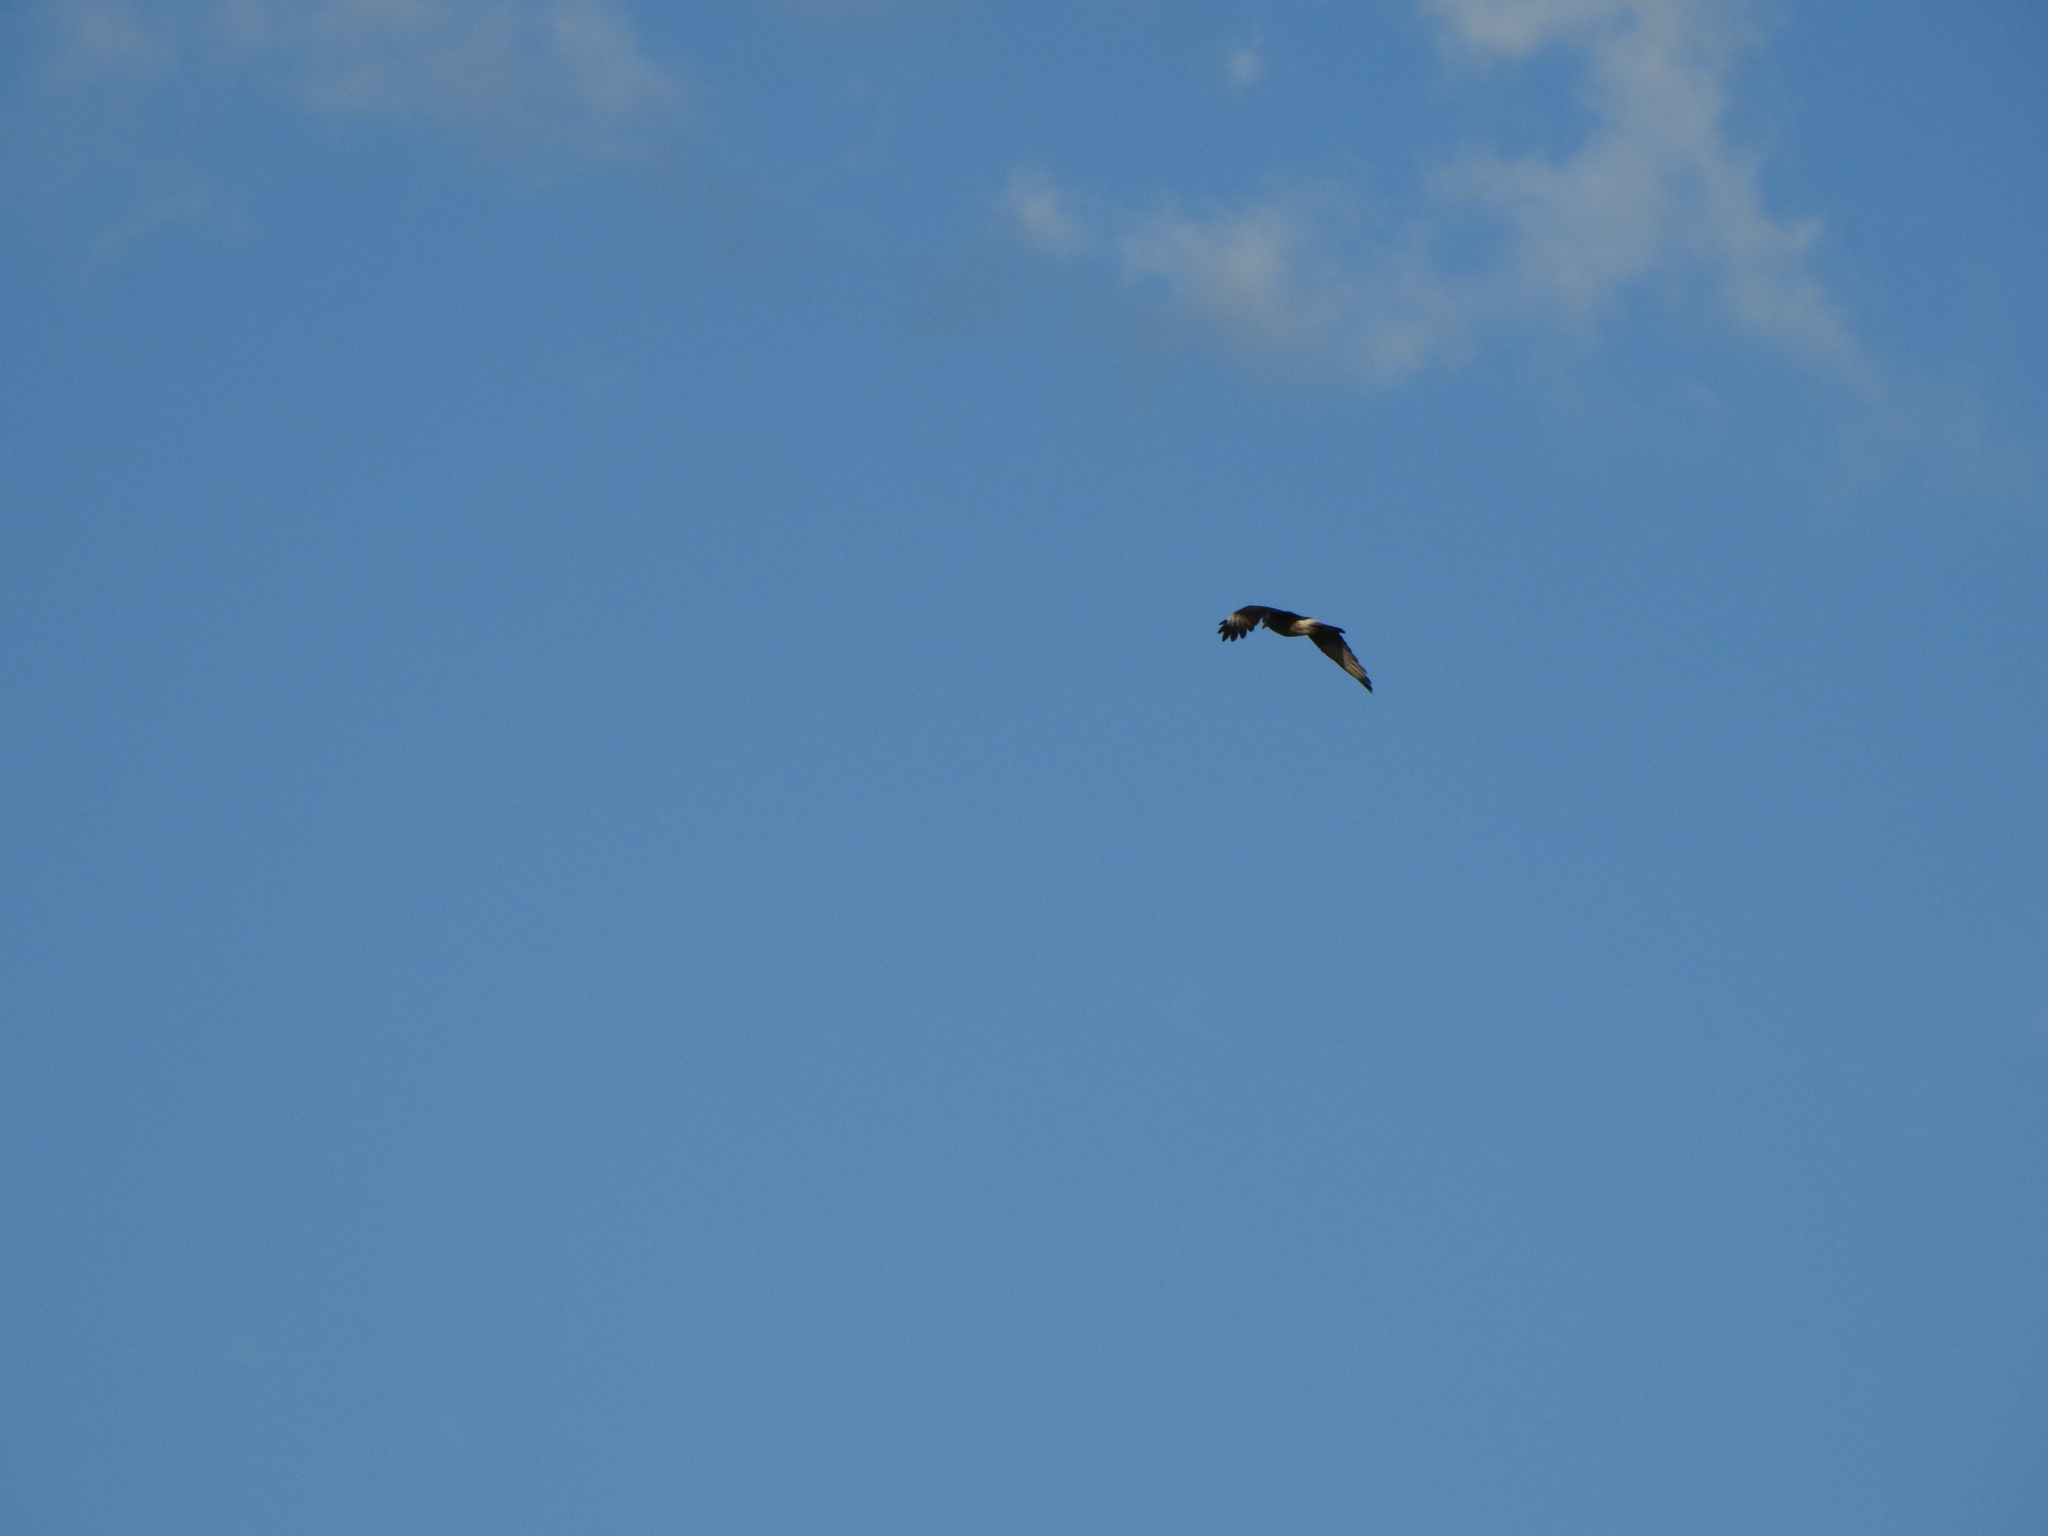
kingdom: Animalia
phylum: Chordata
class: Aves
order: Falconiformes
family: Falconidae
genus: Caracara
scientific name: Caracara plancus
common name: Southern caracara
